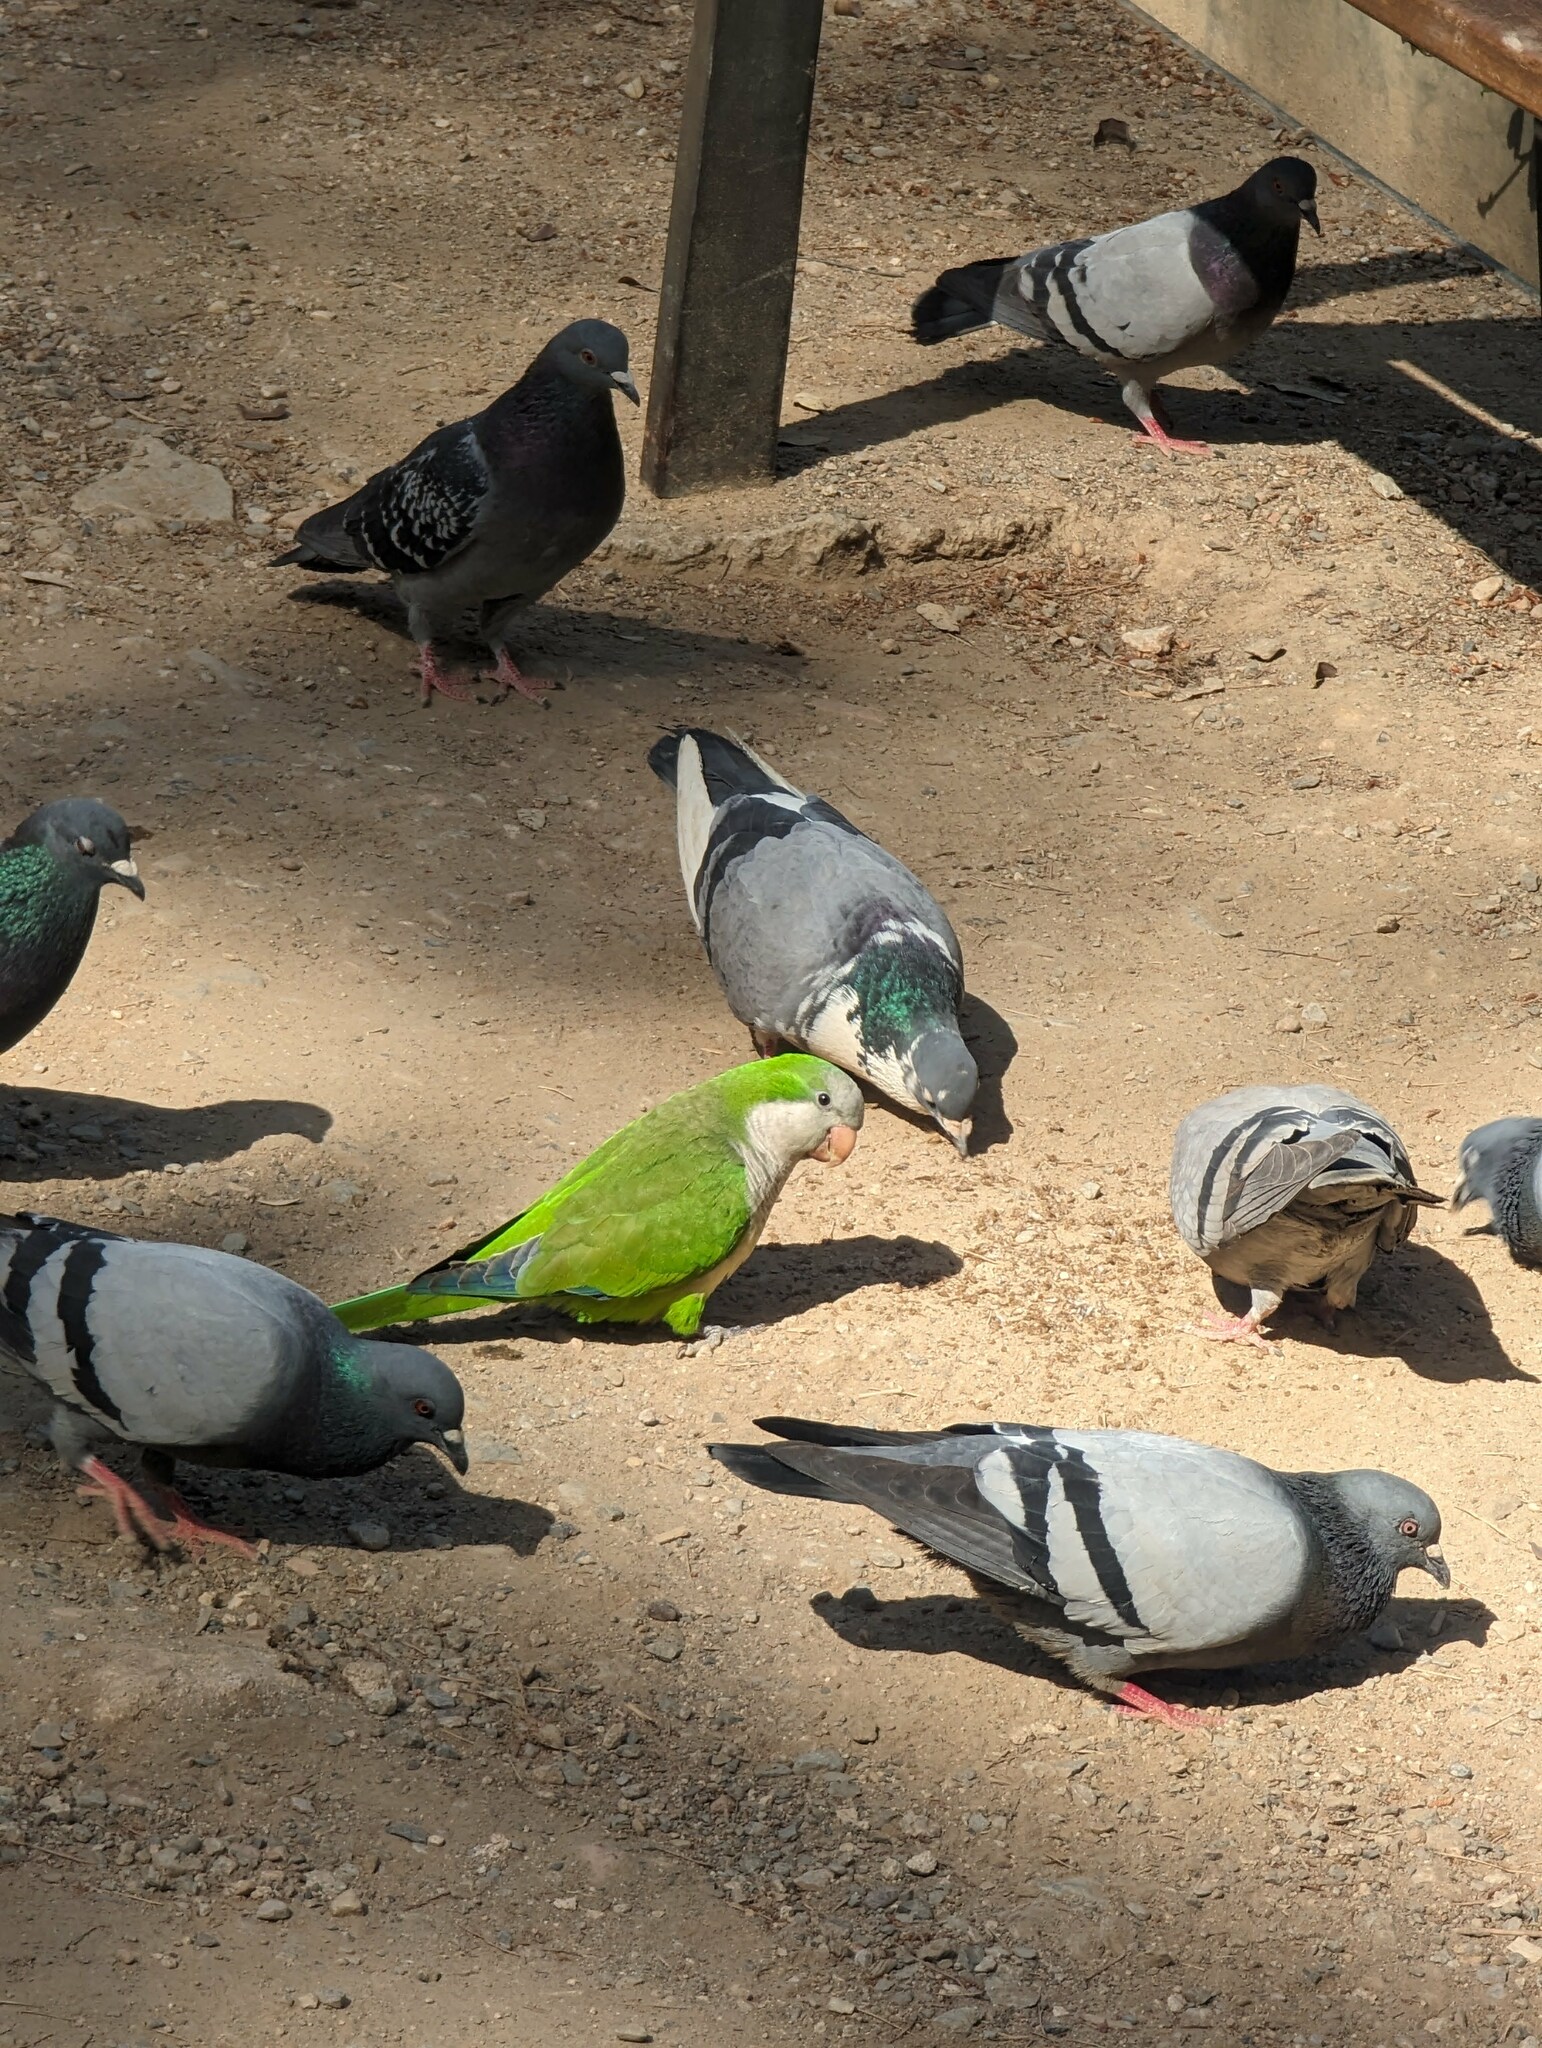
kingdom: Animalia
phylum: Chordata
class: Aves
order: Psittaciformes
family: Psittacidae
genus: Myiopsitta
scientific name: Myiopsitta monachus
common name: Monk parakeet
